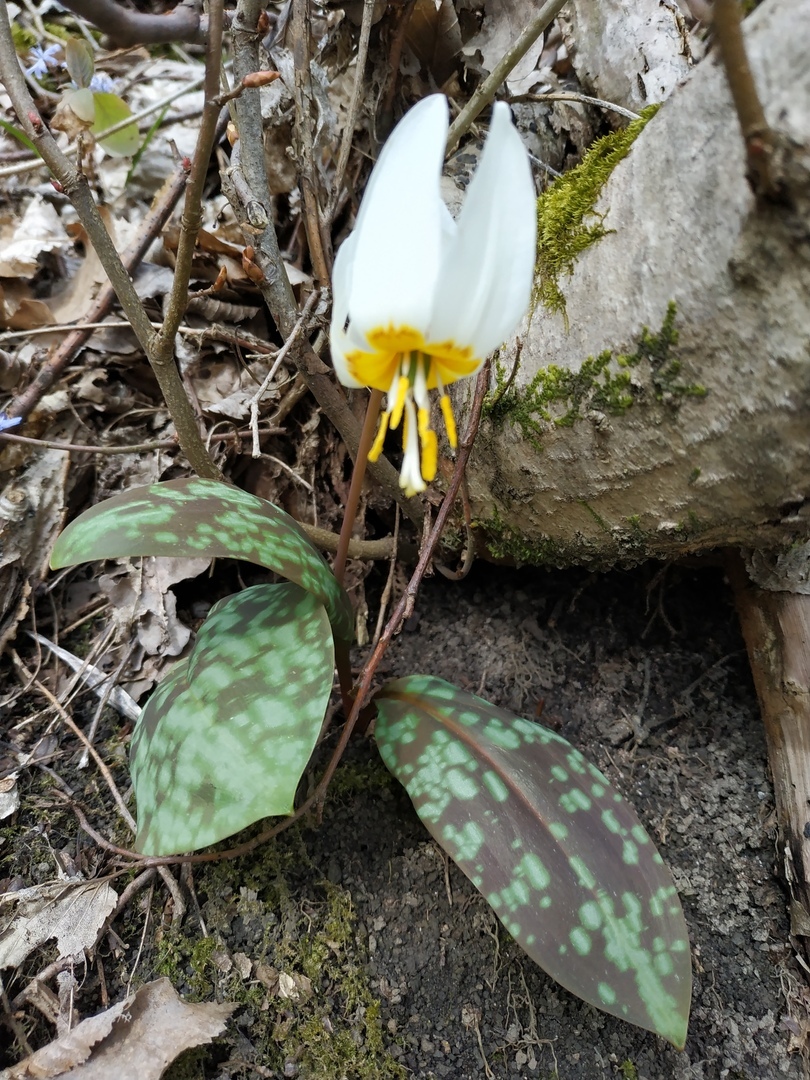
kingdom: Plantae
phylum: Tracheophyta
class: Liliopsida
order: Liliales
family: Liliaceae
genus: Erythronium
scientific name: Erythronium caucasicum
